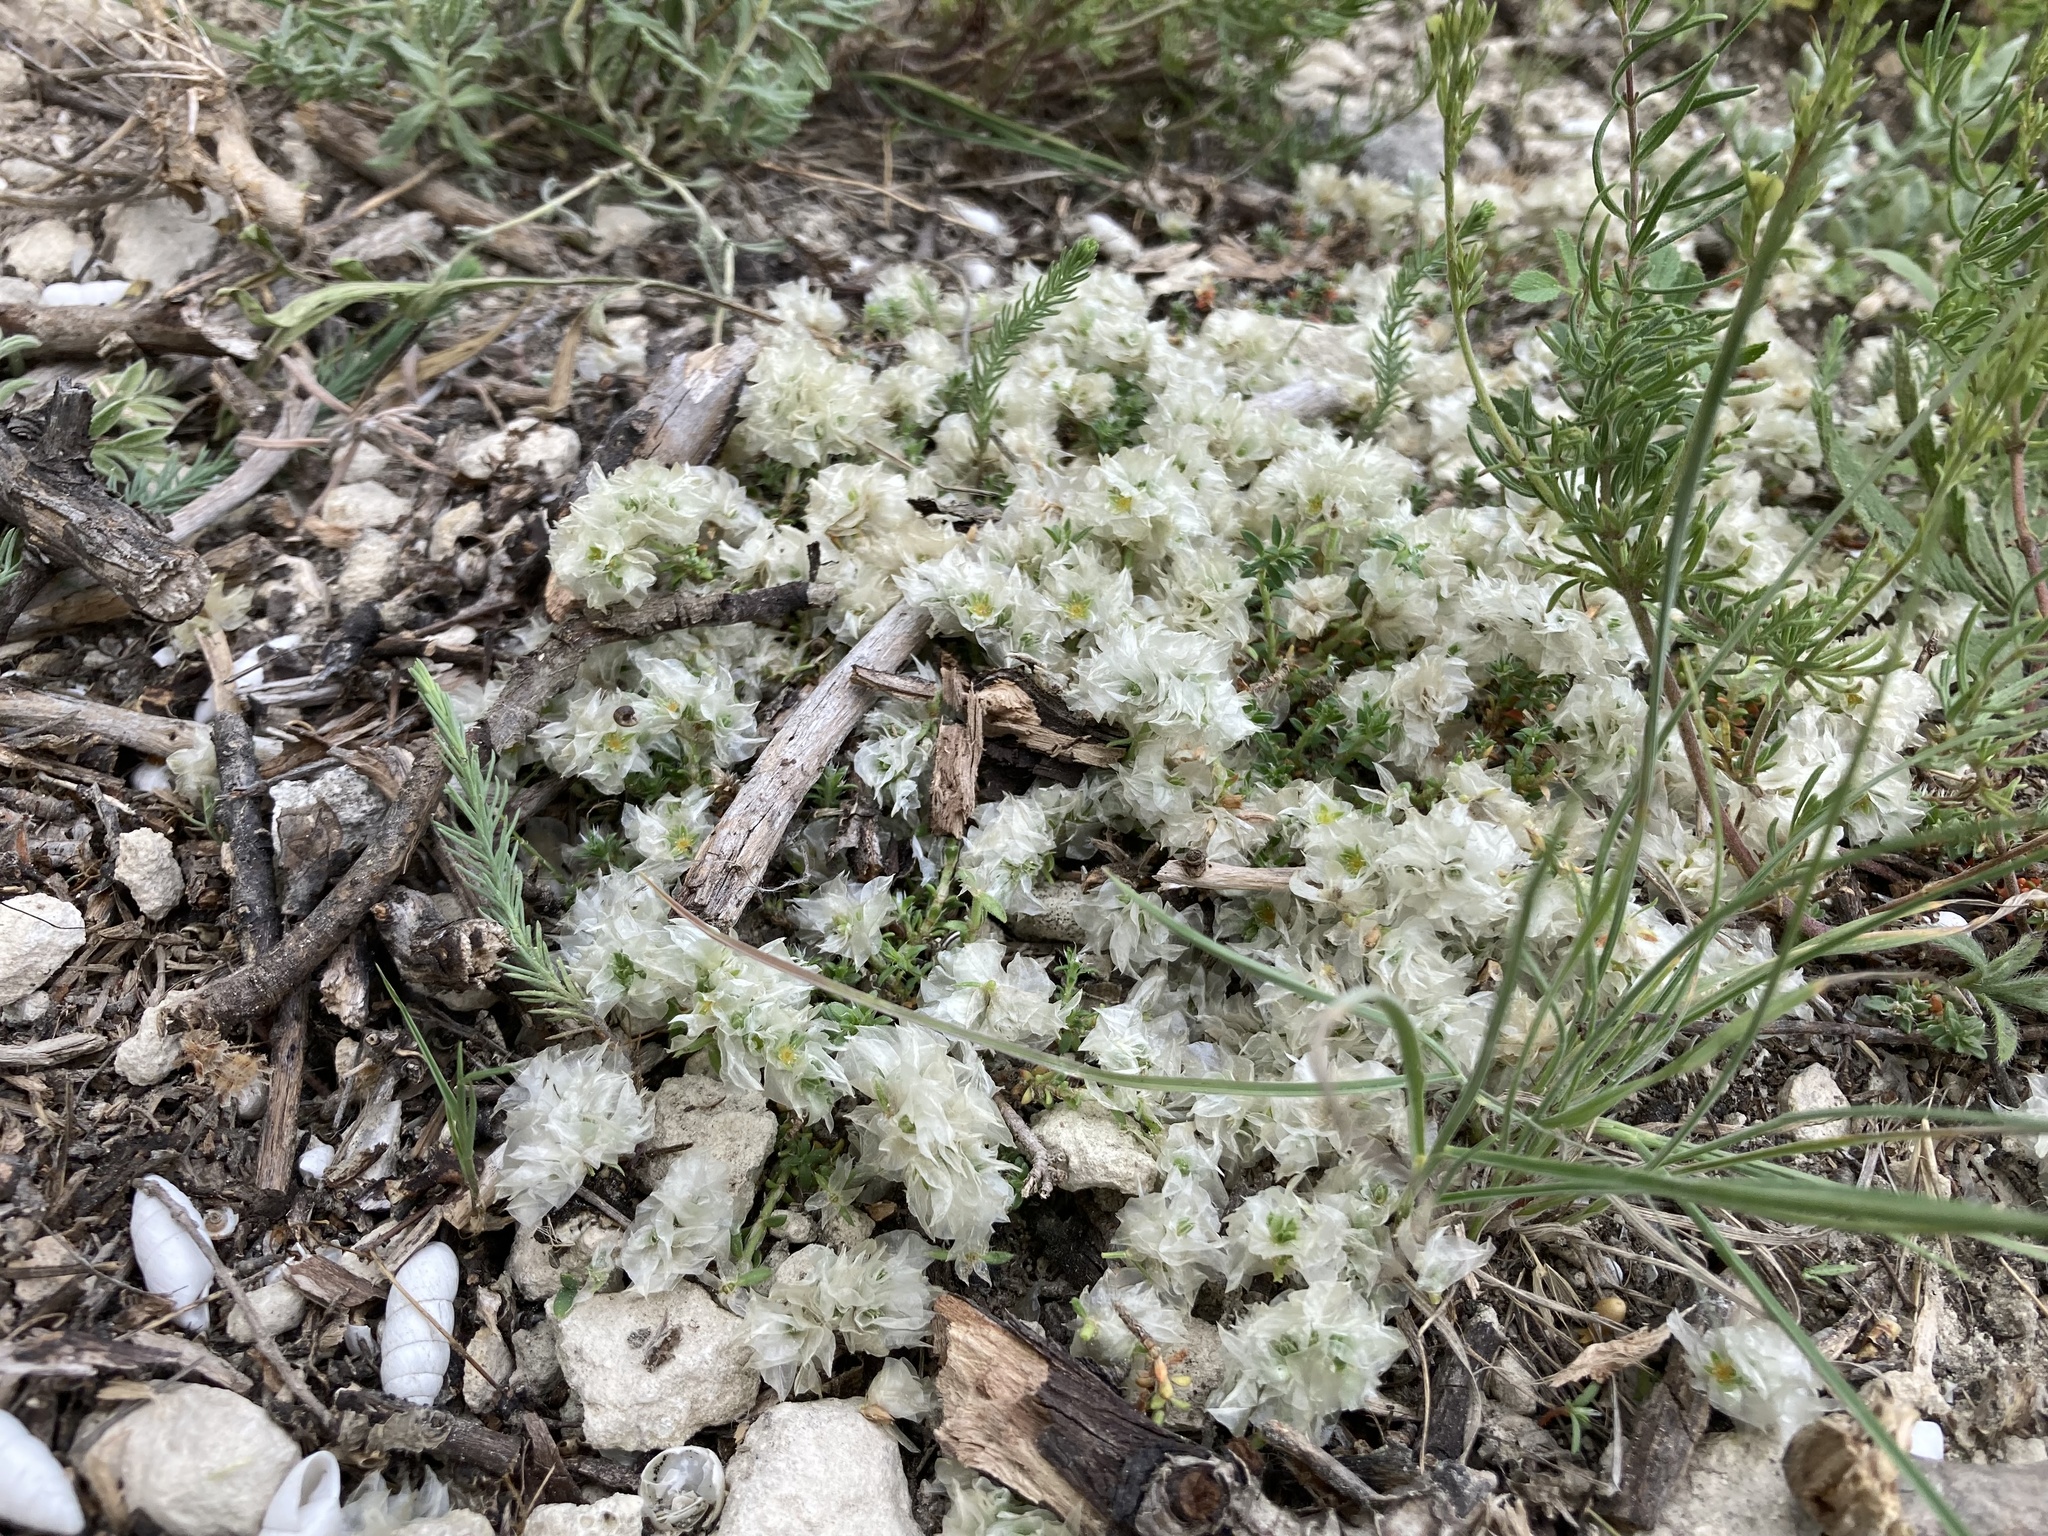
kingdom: Plantae
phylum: Tracheophyta
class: Magnoliopsida
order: Caryophyllales
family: Caryophyllaceae
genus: Paronychia
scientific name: Paronychia cephalotes
